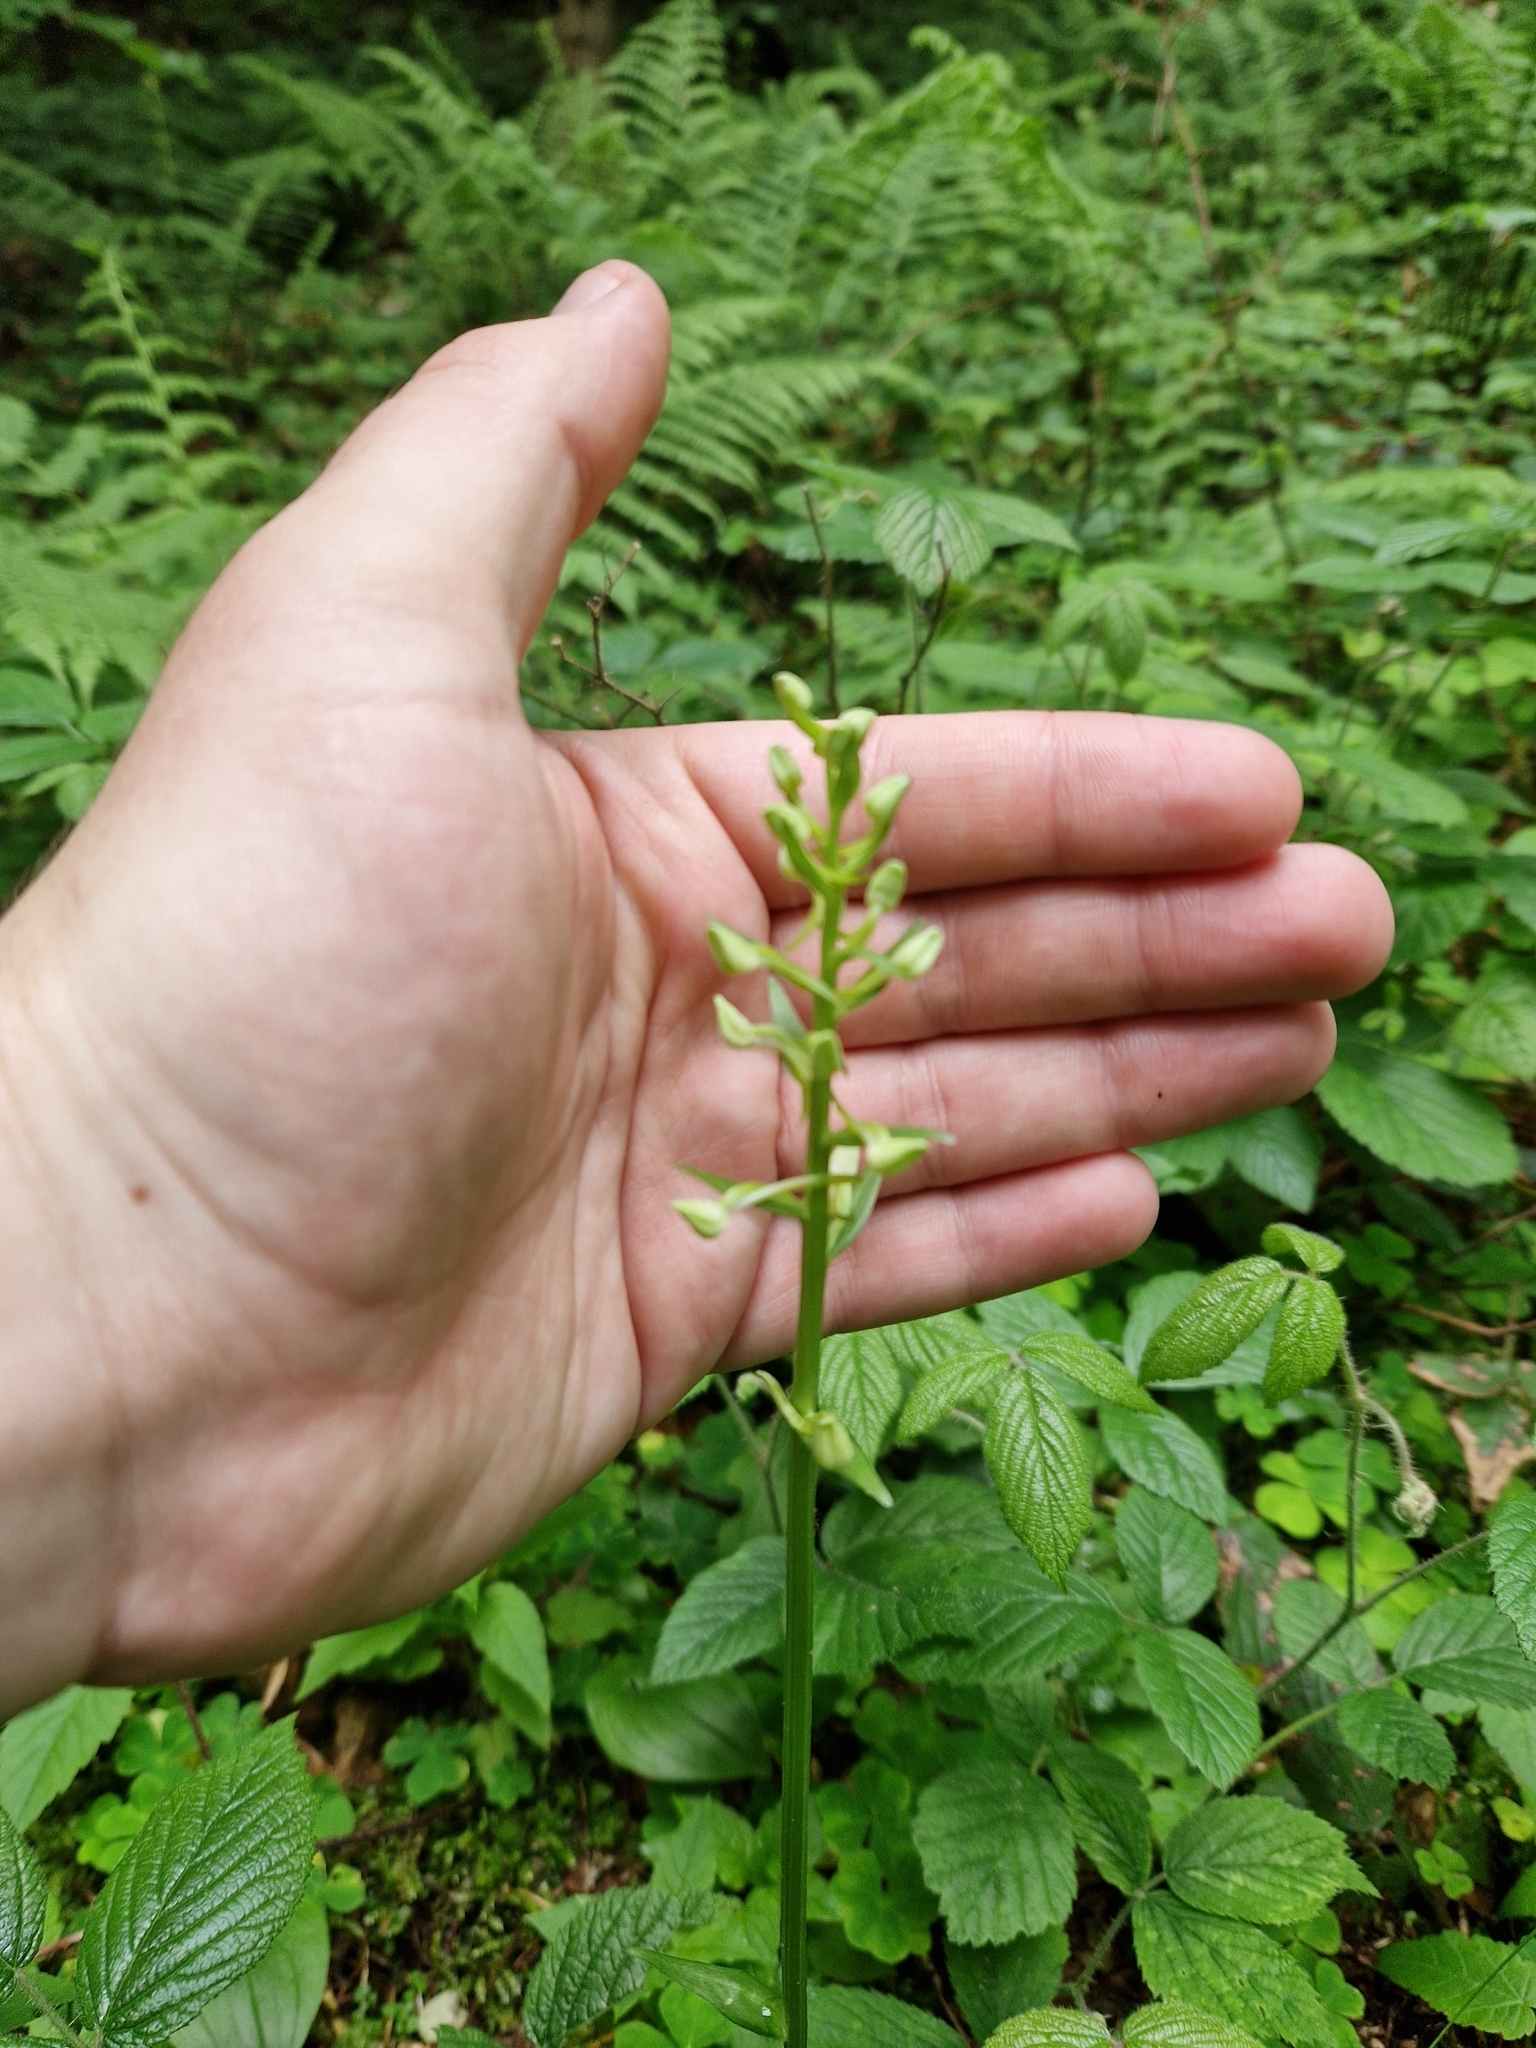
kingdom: Plantae
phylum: Tracheophyta
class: Liliopsida
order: Asparagales
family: Orchidaceae
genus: Platanthera
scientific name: Platanthera bifolia
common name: Lesser butterfly-orchid
